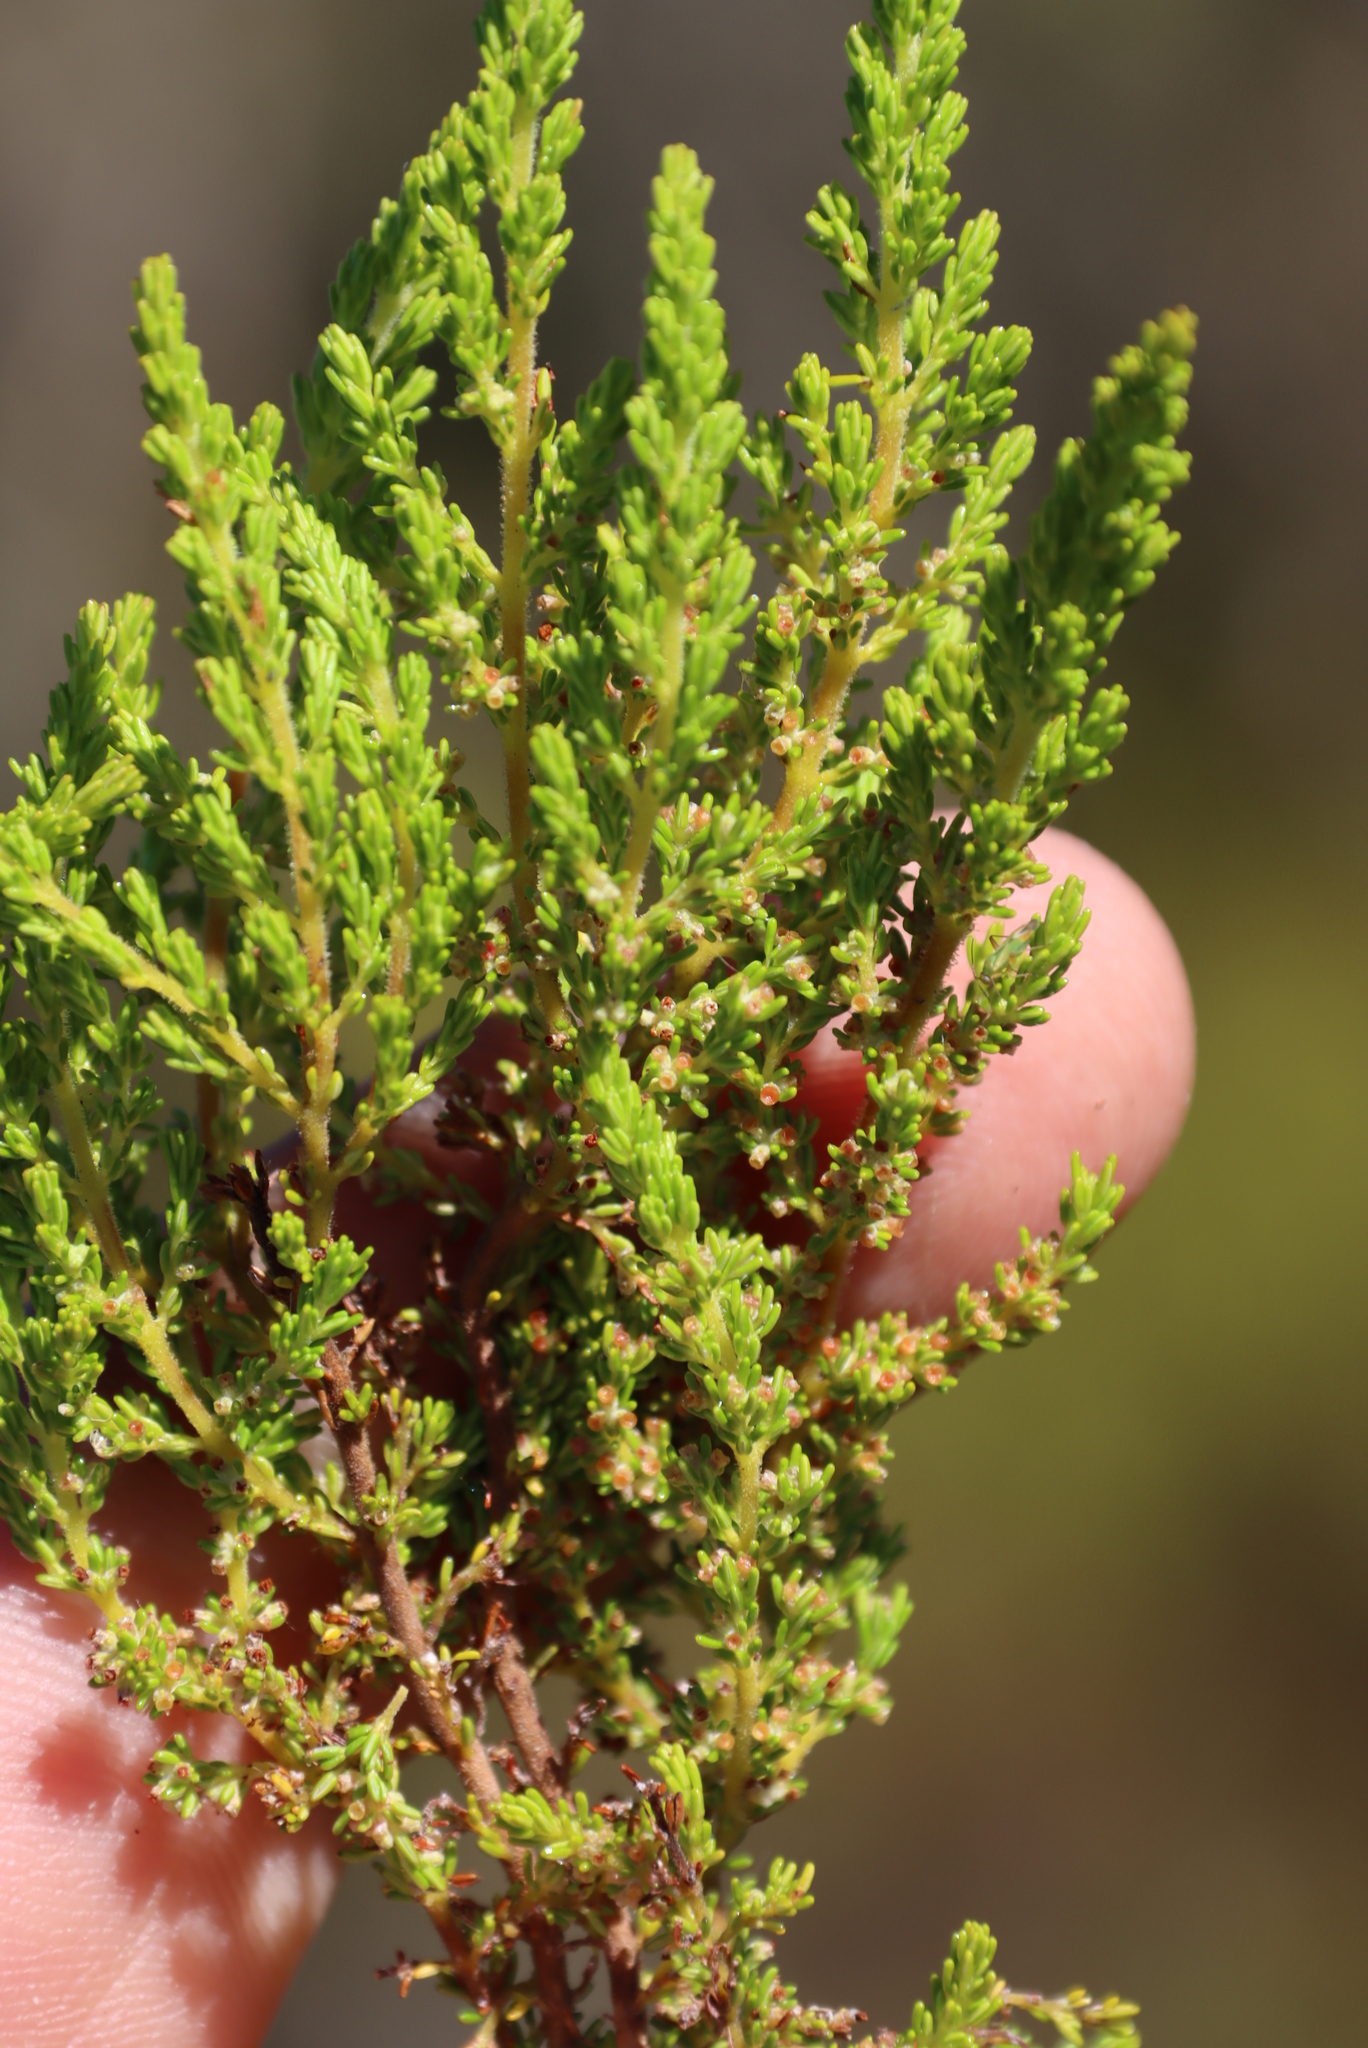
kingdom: Plantae
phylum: Tracheophyta
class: Magnoliopsida
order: Ericales
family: Ericaceae
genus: Erica
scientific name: Erica muscosa
